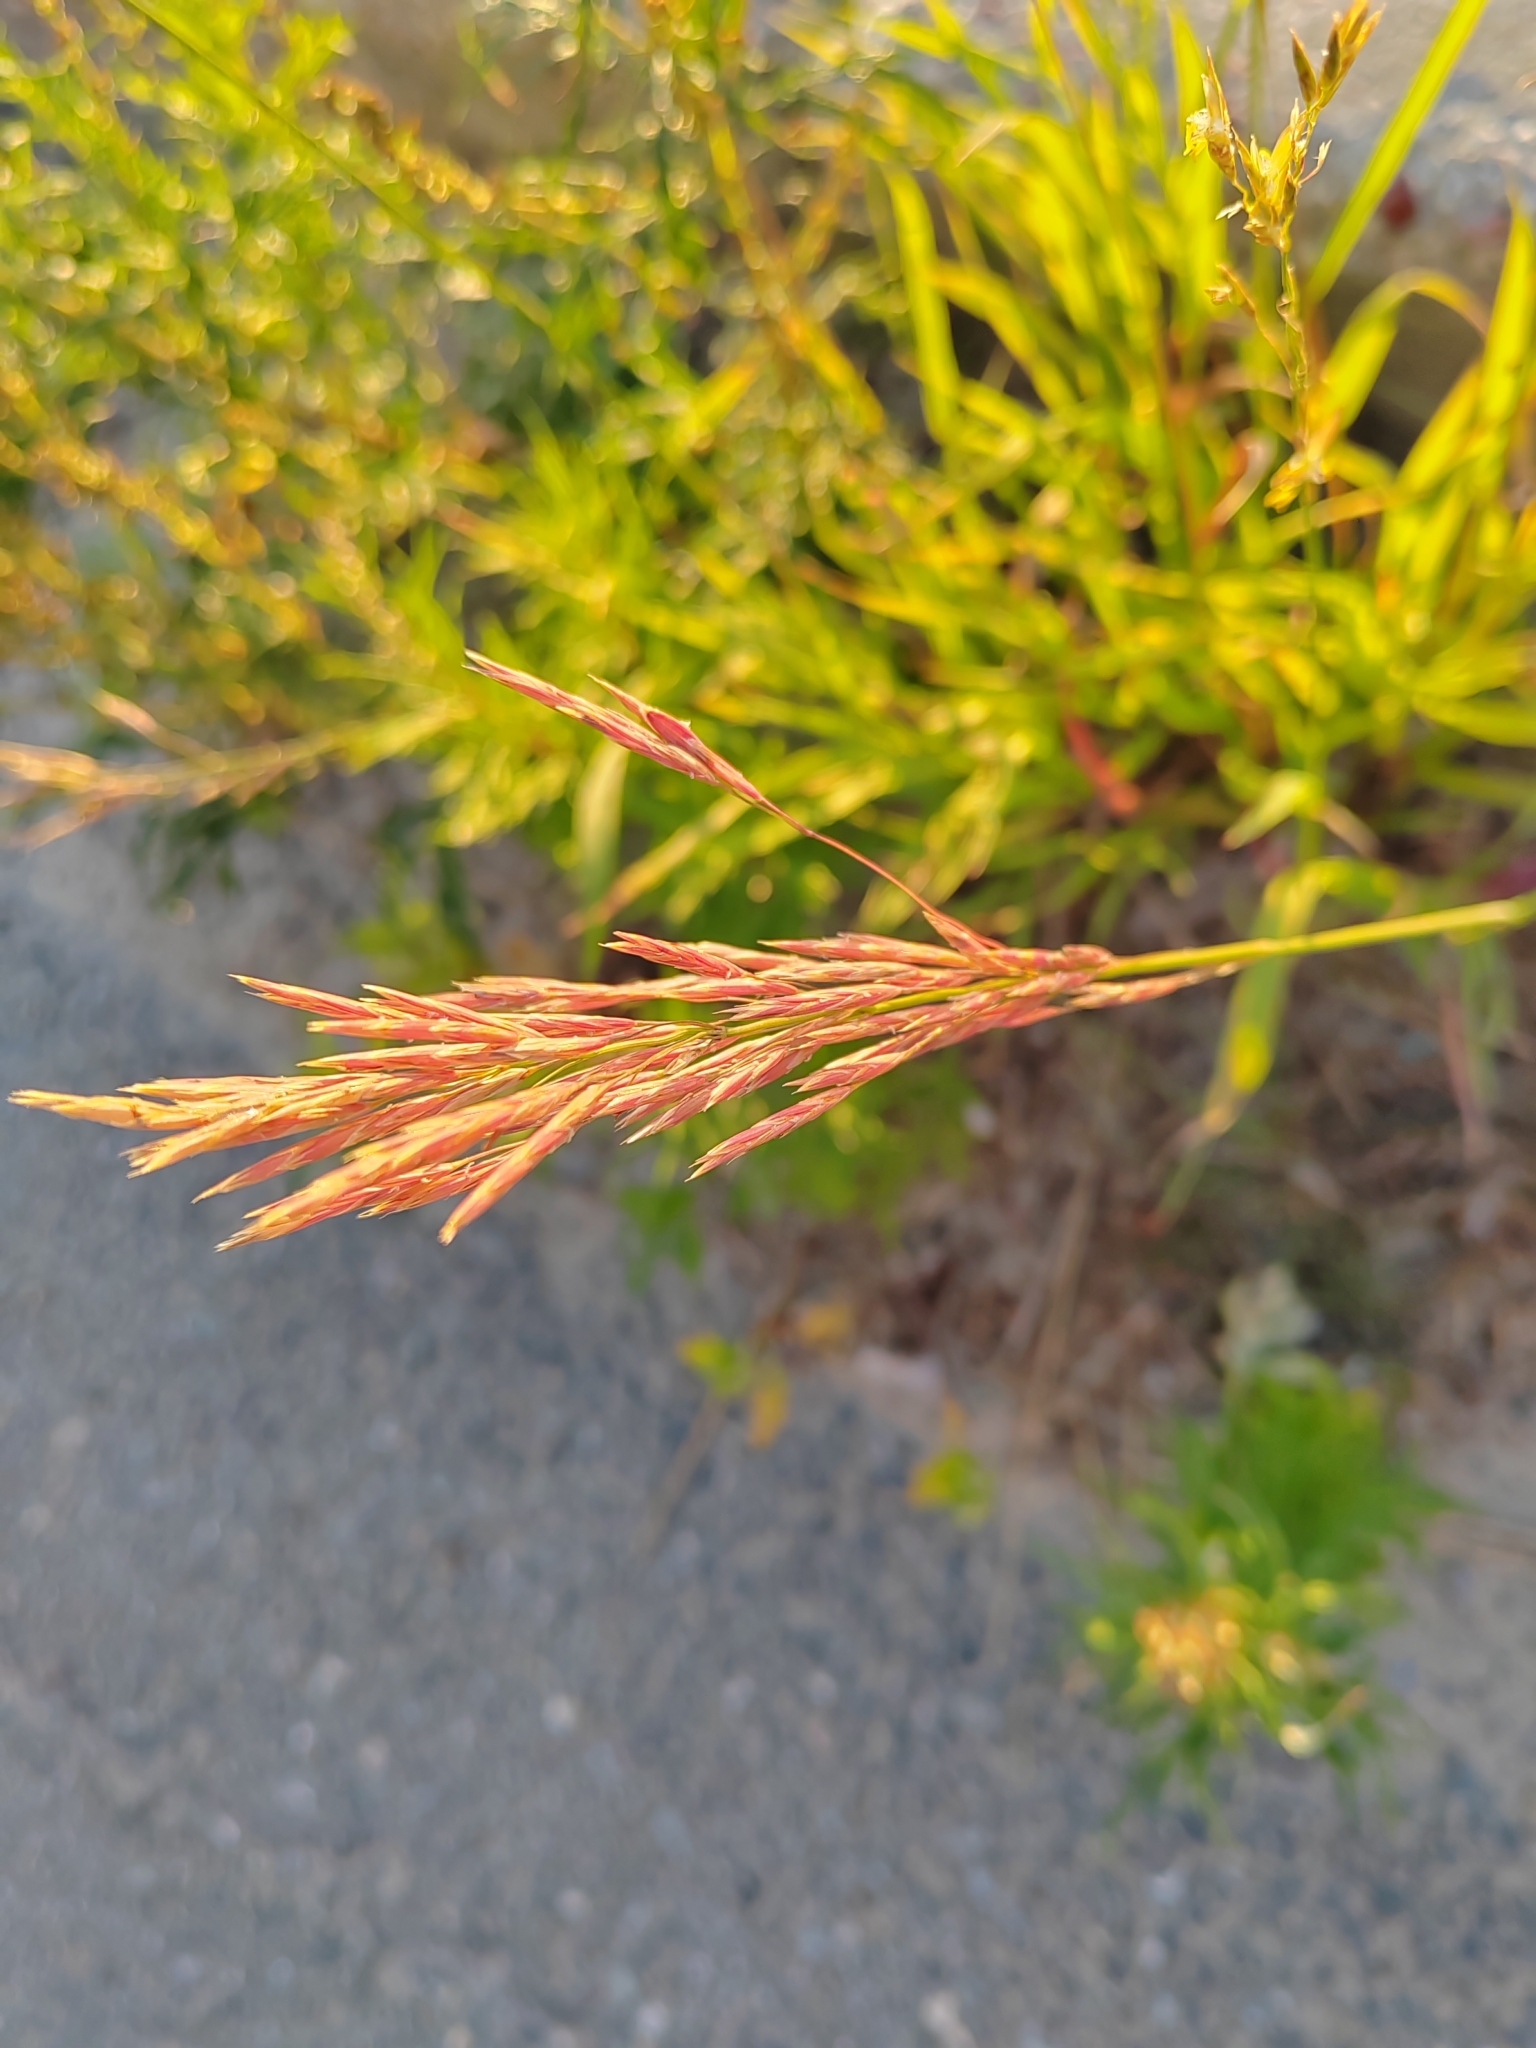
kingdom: Plantae
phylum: Tracheophyta
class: Liliopsida
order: Poales
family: Poaceae
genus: Bromus
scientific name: Bromus inermis
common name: Smooth brome
